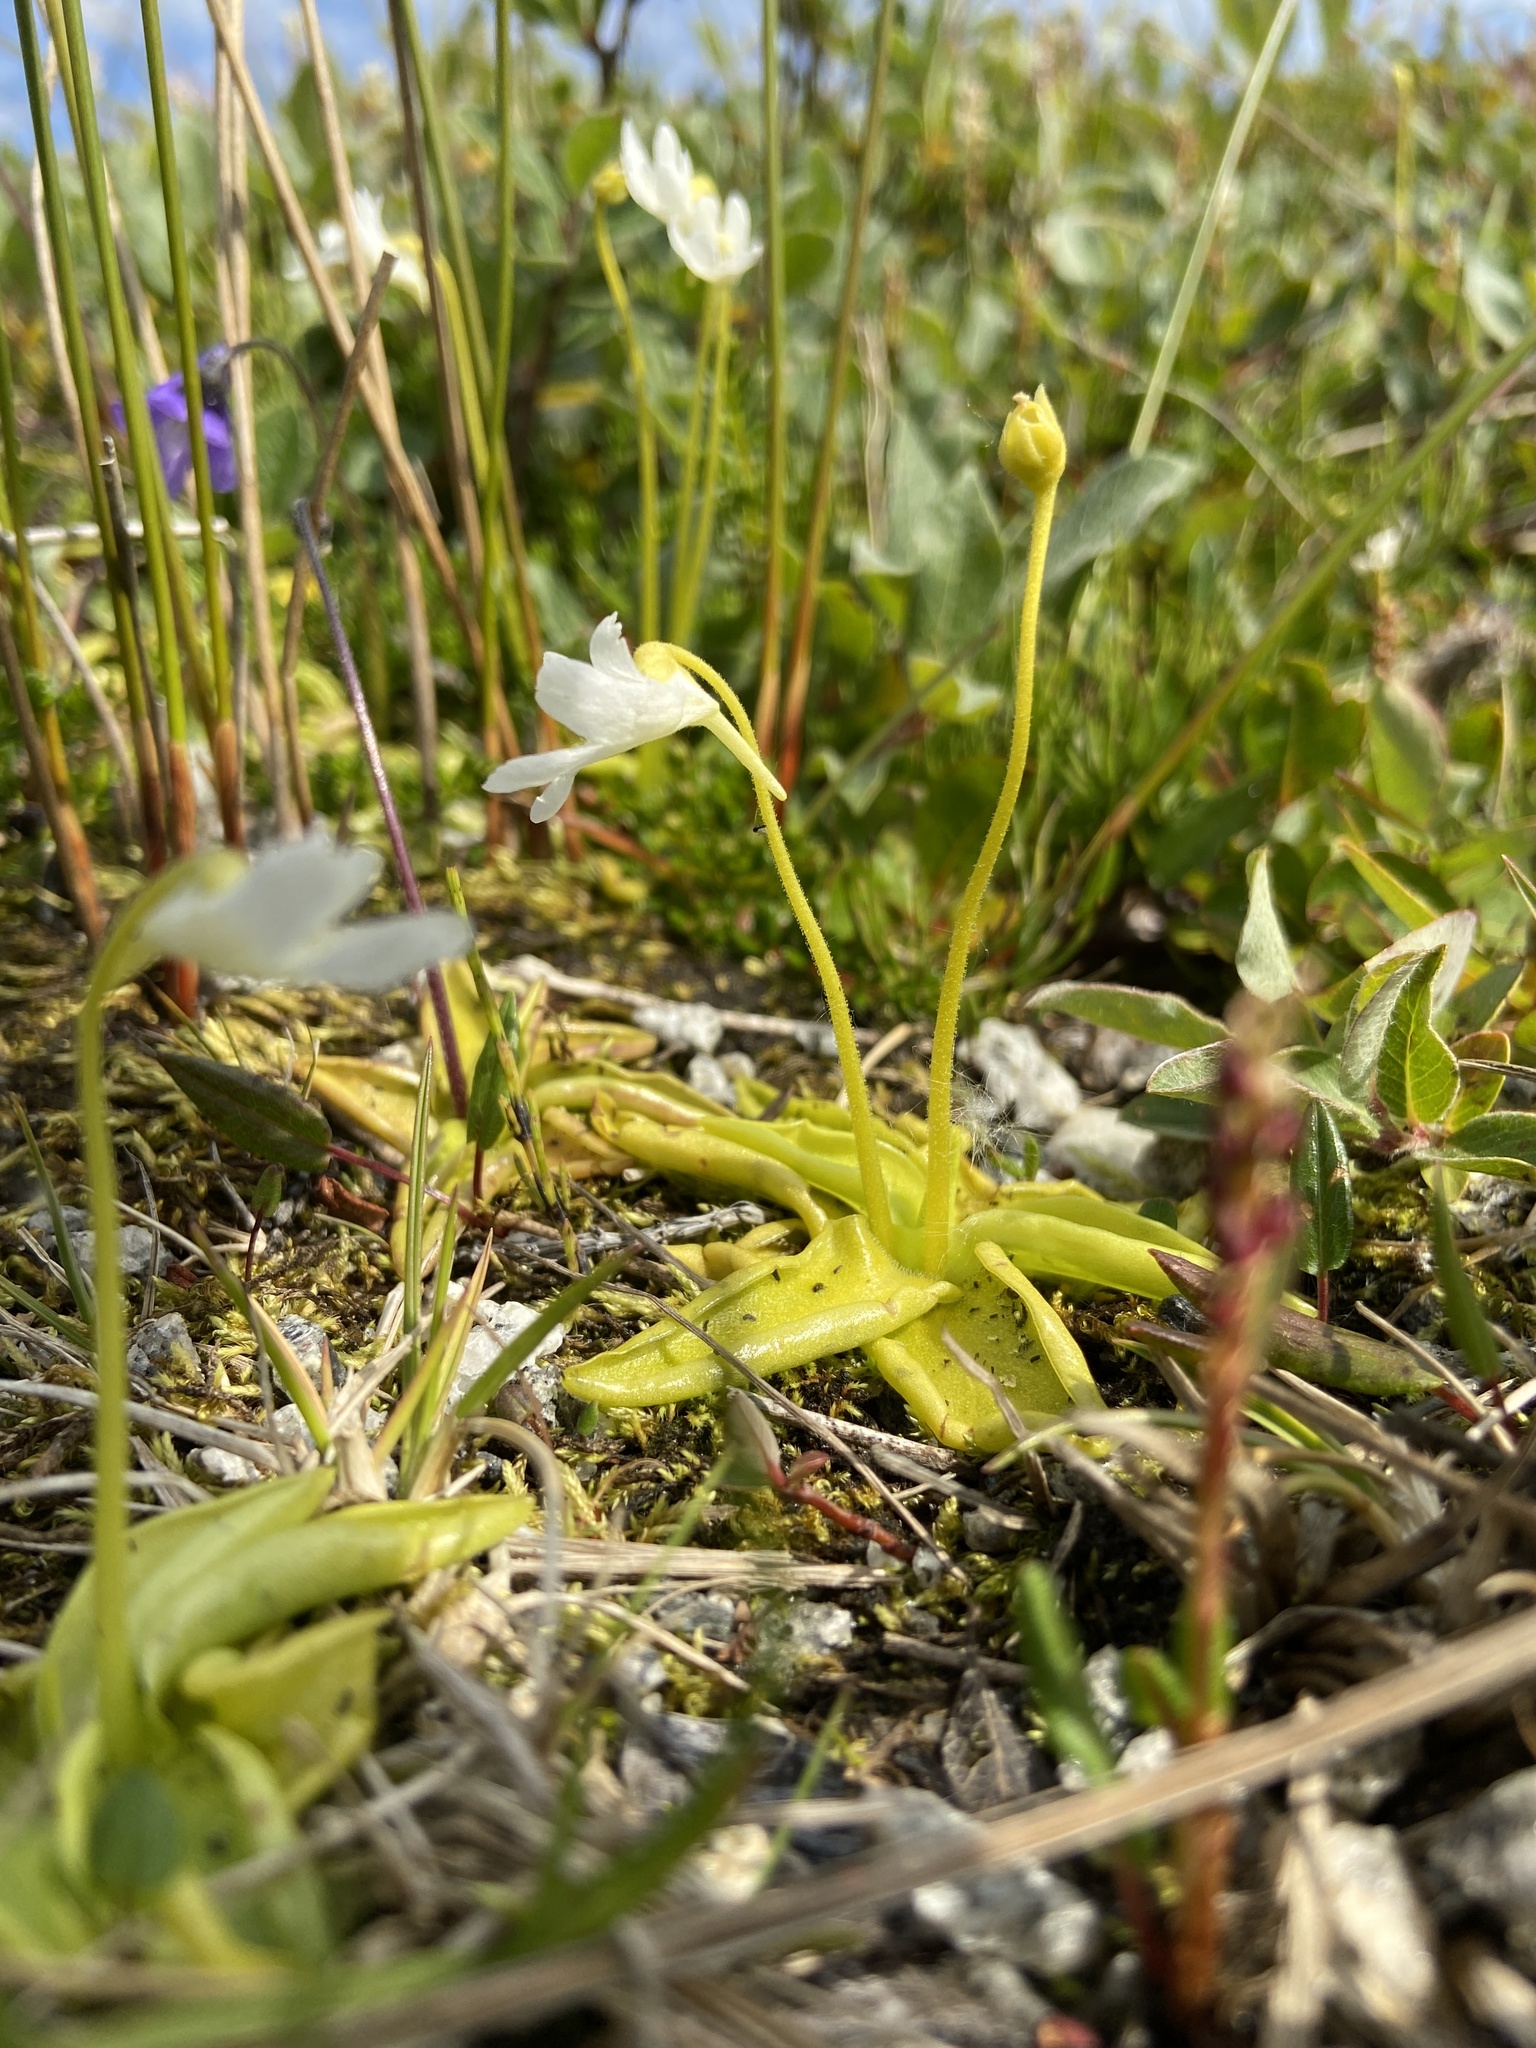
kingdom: Plantae
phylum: Tracheophyta
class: Magnoliopsida
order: Lamiales
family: Lentibulariaceae
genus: Pinguicula
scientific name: Pinguicula vulgaris
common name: Common butterwort
